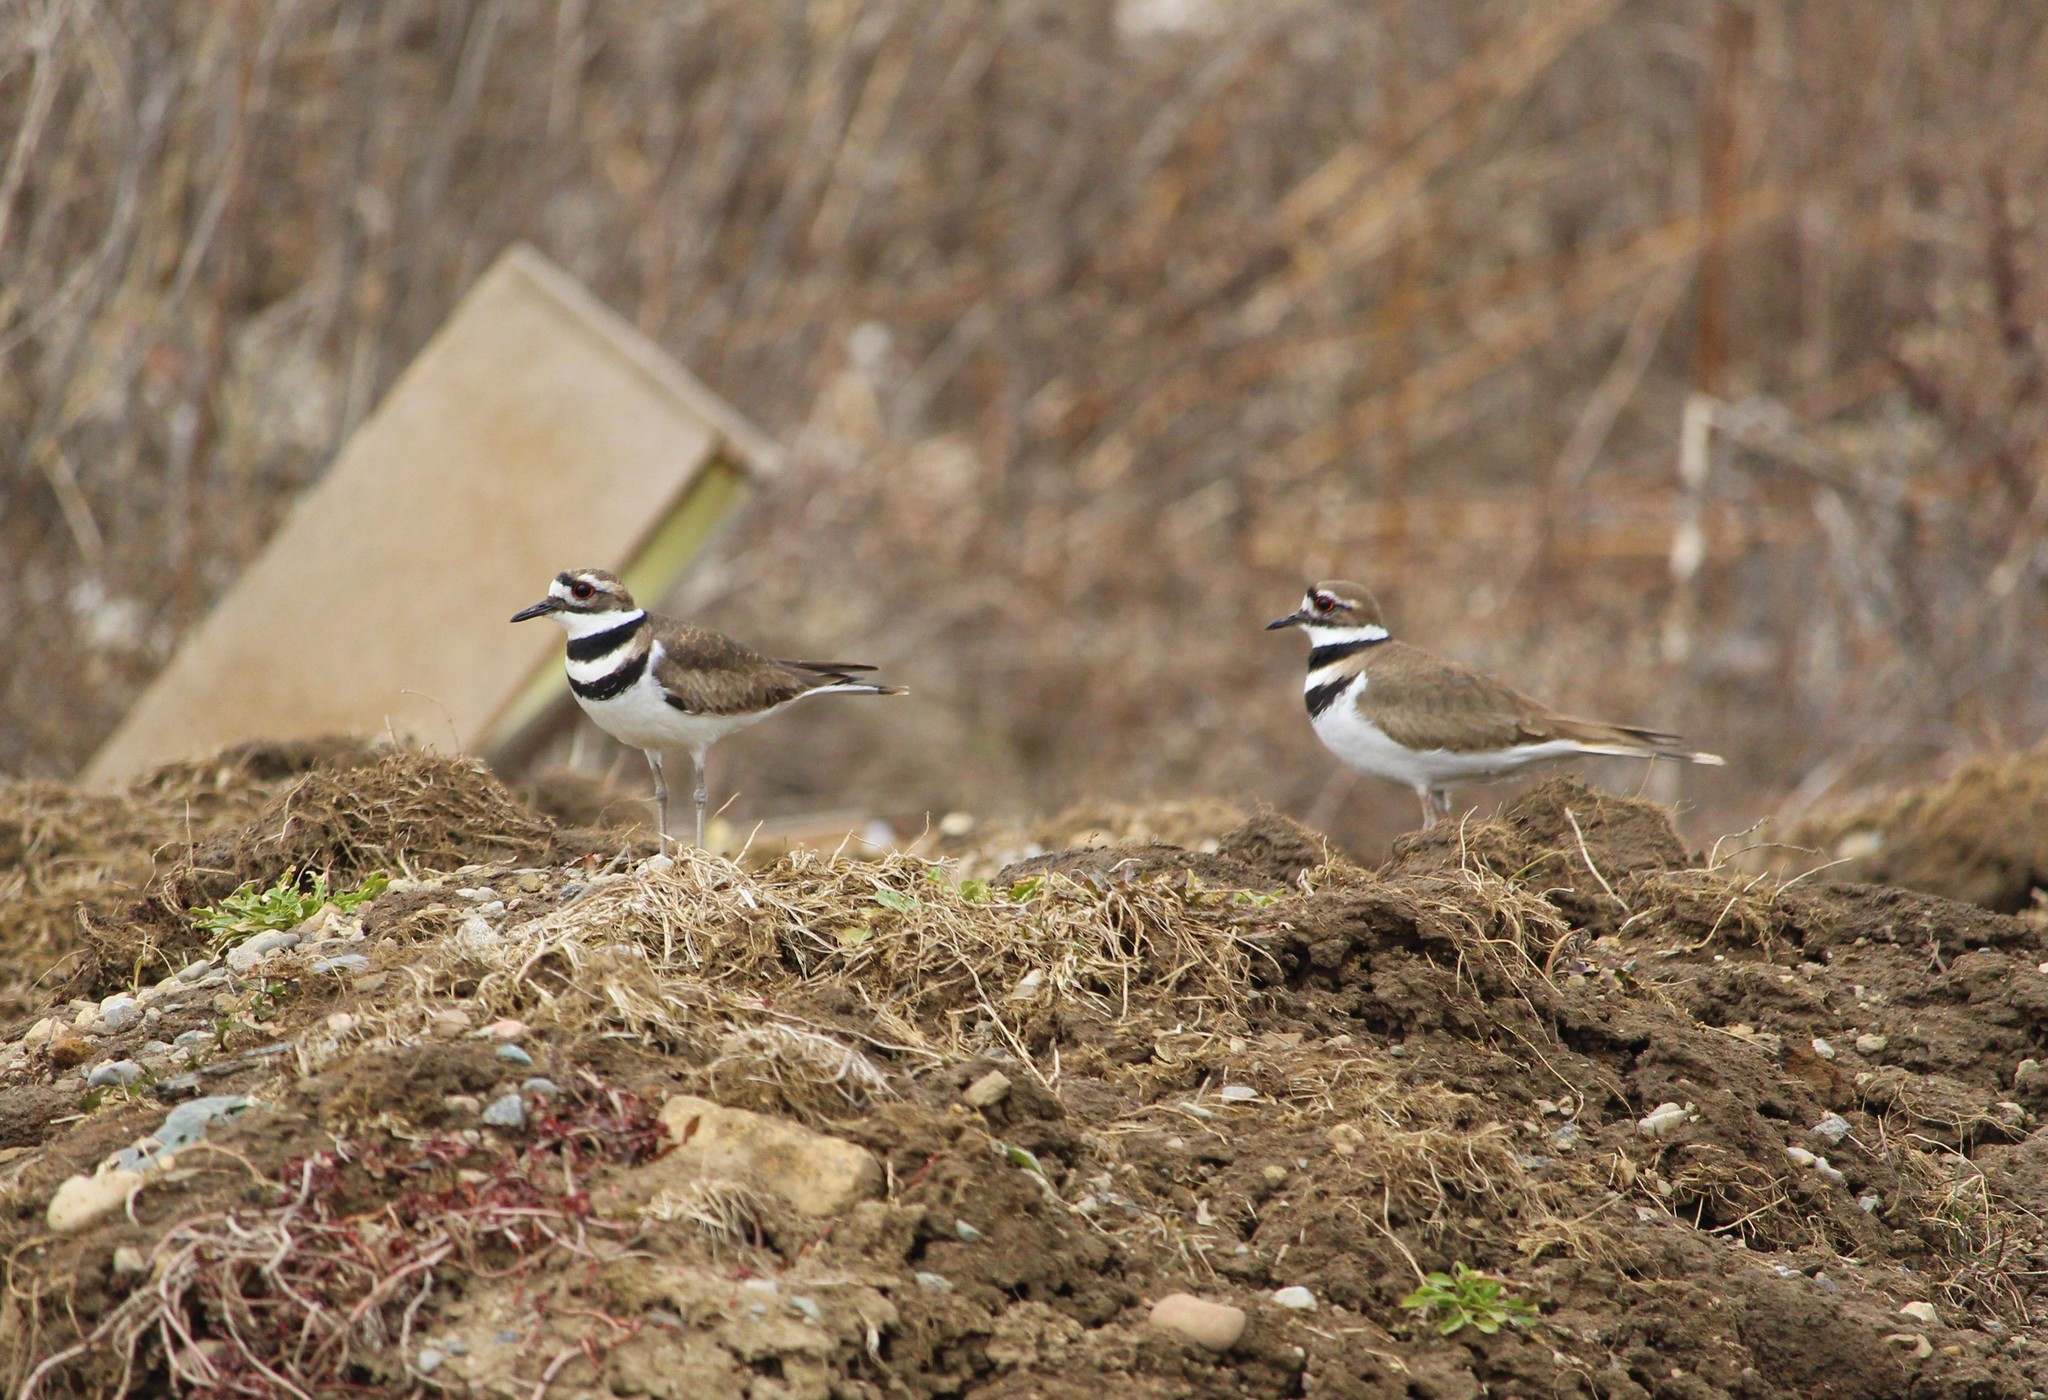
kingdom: Animalia
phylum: Chordata
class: Aves
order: Charadriiformes
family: Charadriidae
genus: Charadrius
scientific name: Charadrius vociferus
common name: Killdeer
